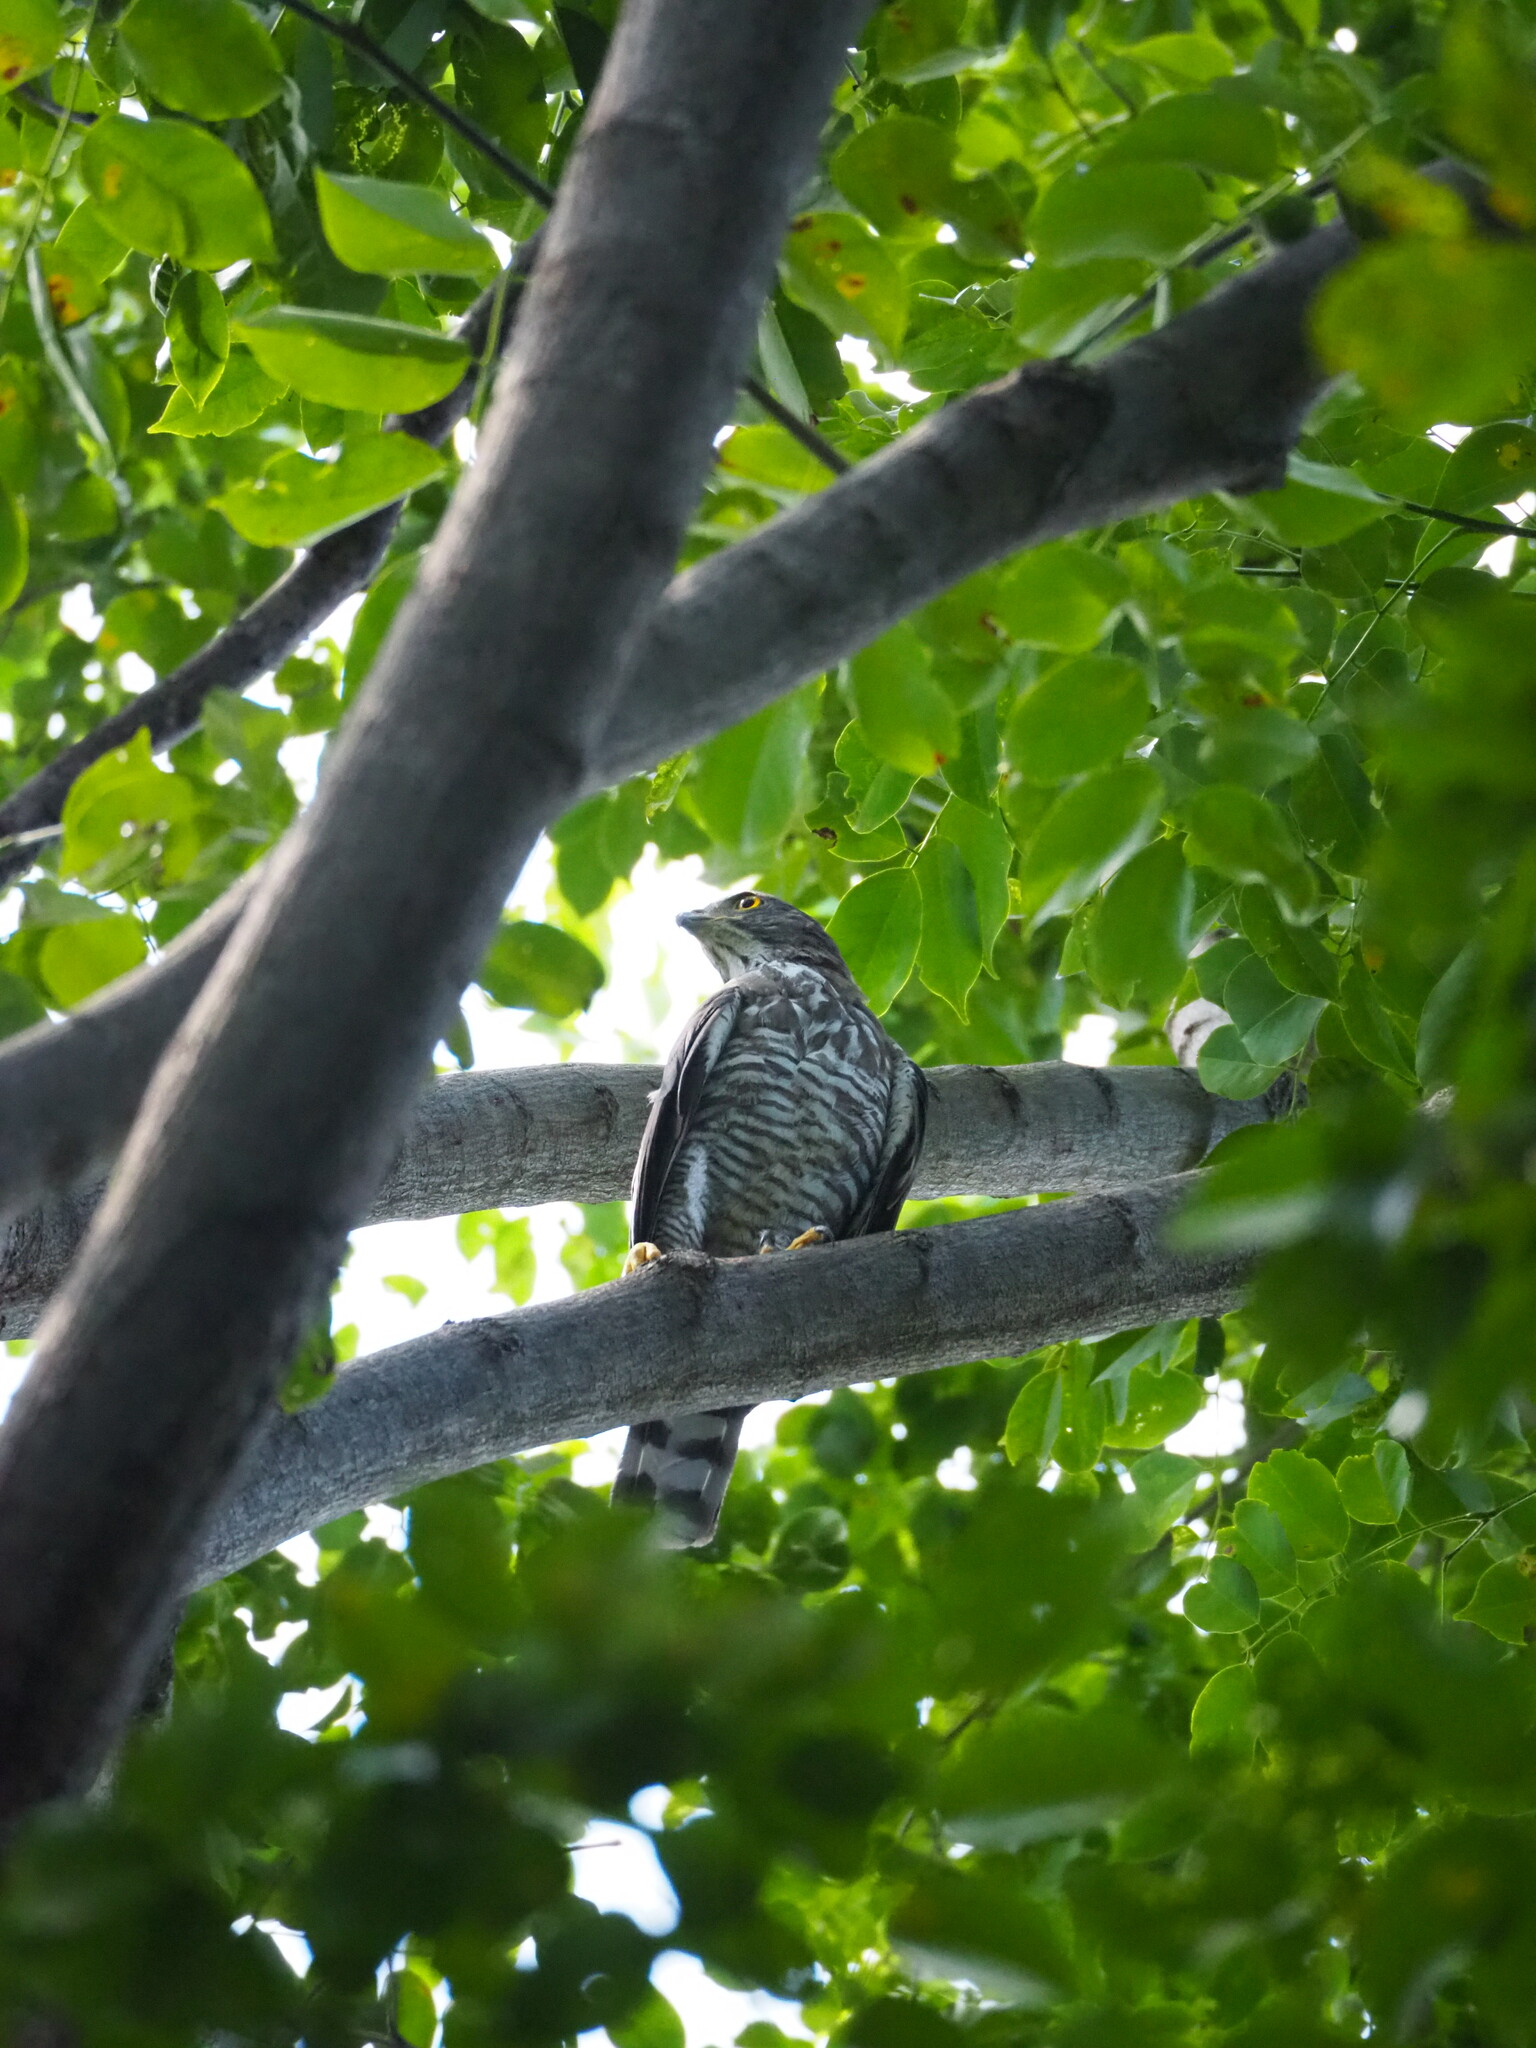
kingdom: Animalia
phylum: Chordata
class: Aves
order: Accipitriformes
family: Accipitridae
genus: Accipiter
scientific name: Accipiter trivirgatus
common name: Crested goshawk
